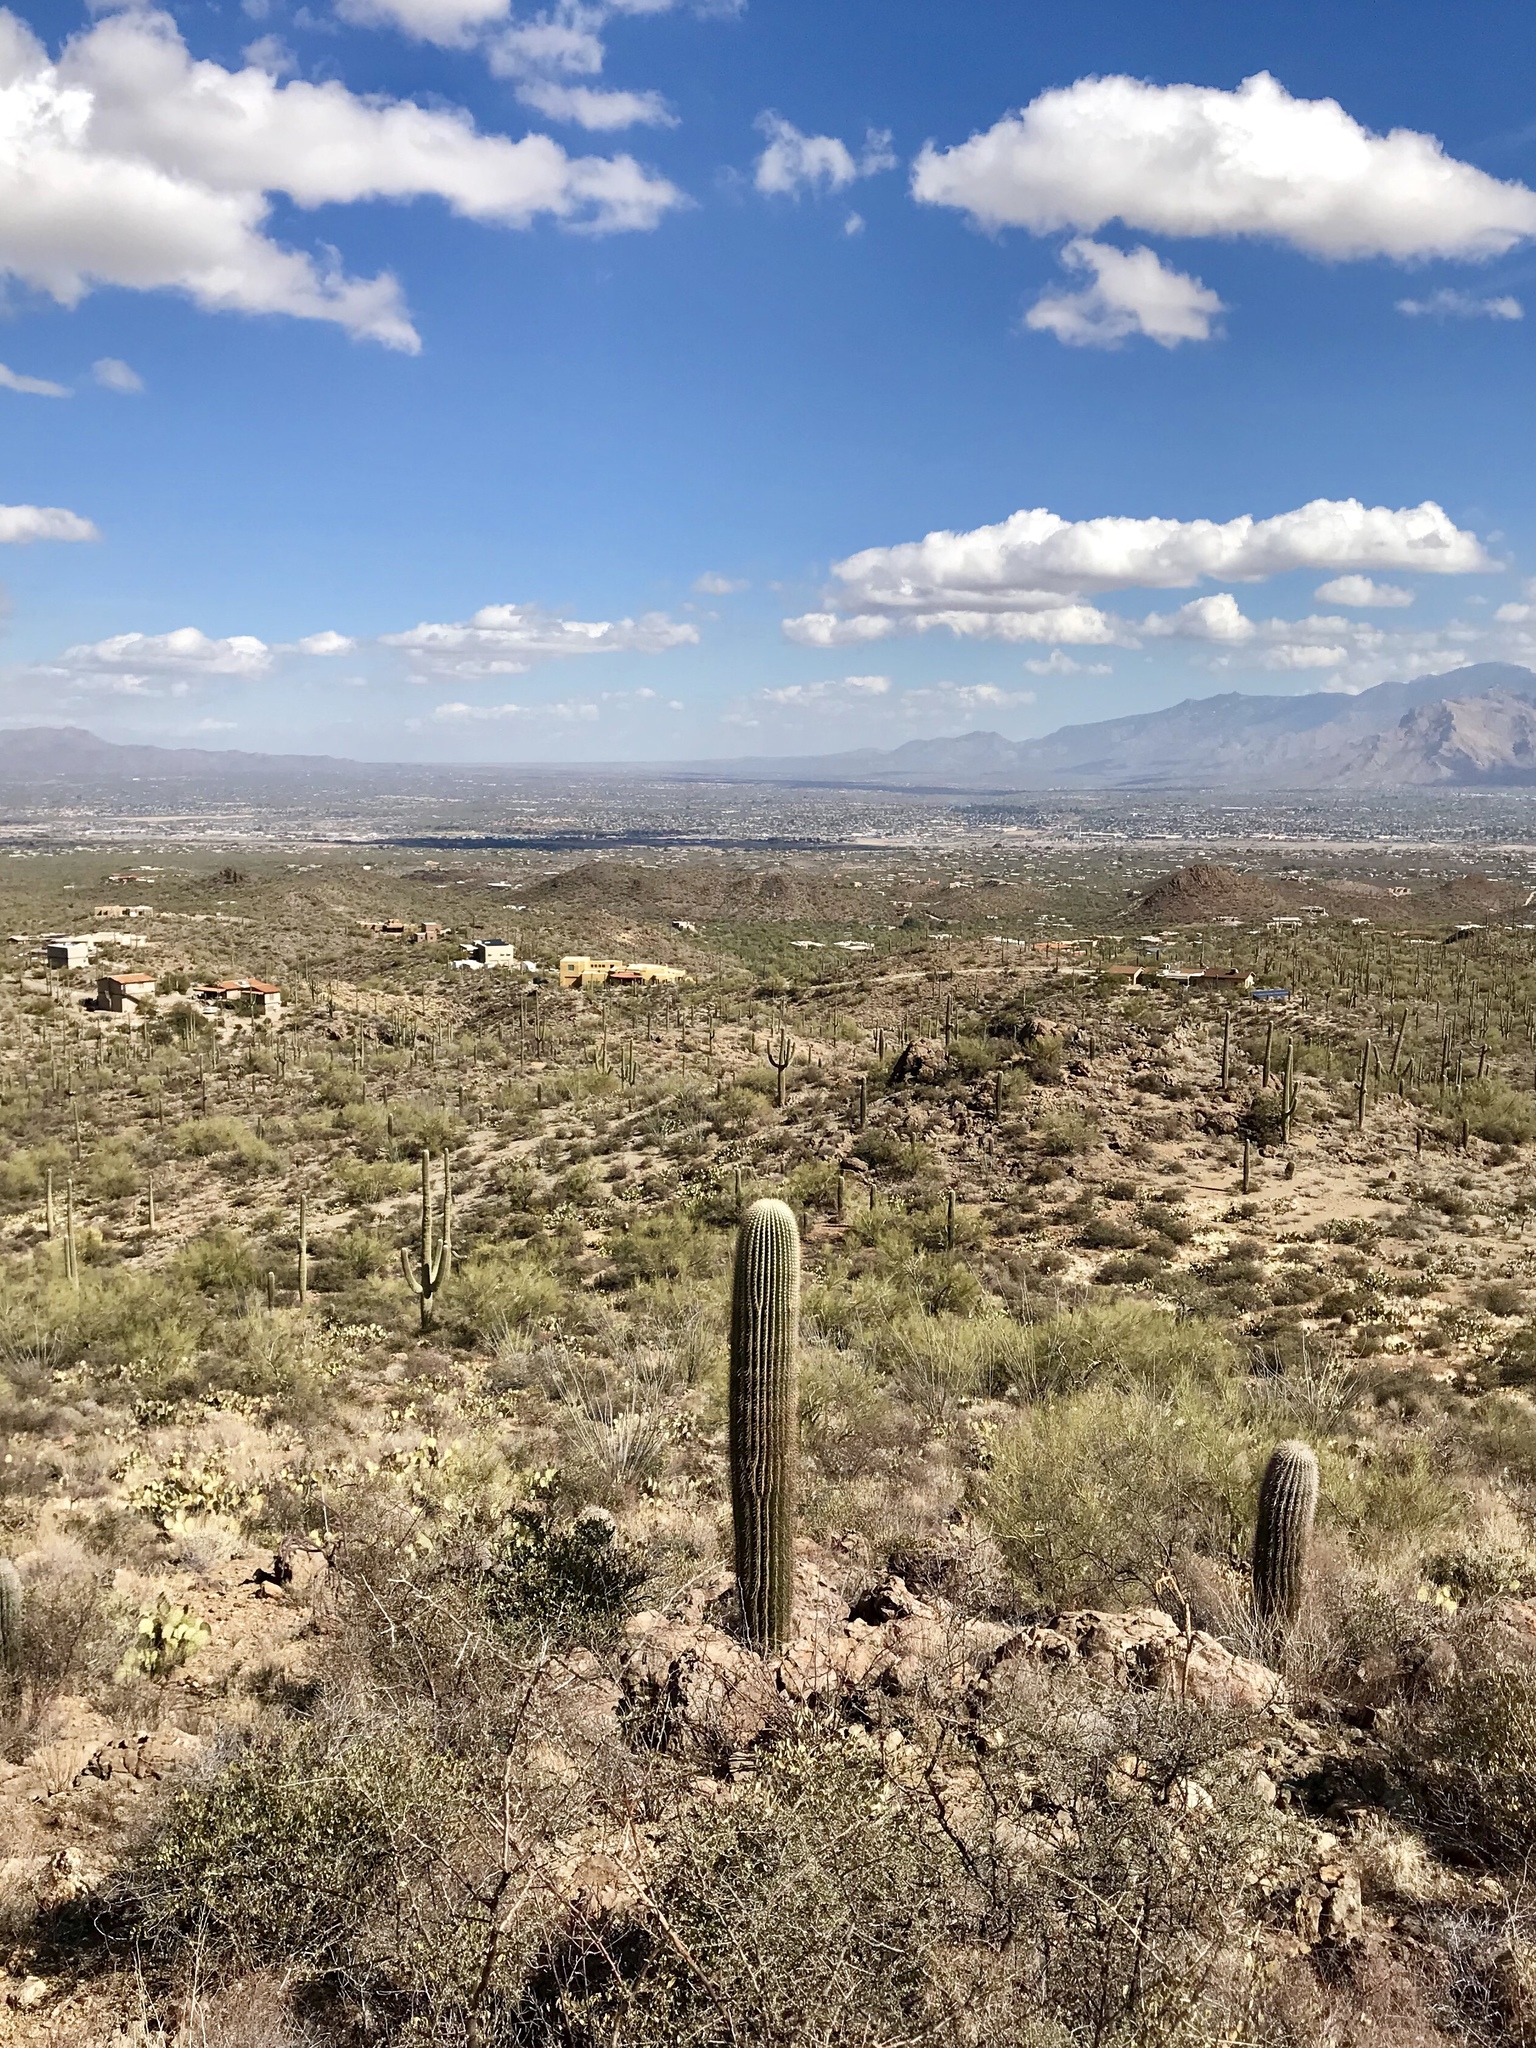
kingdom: Plantae
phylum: Tracheophyta
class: Magnoliopsida
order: Caryophyllales
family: Cactaceae
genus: Carnegiea
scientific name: Carnegiea gigantea
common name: Saguaro
